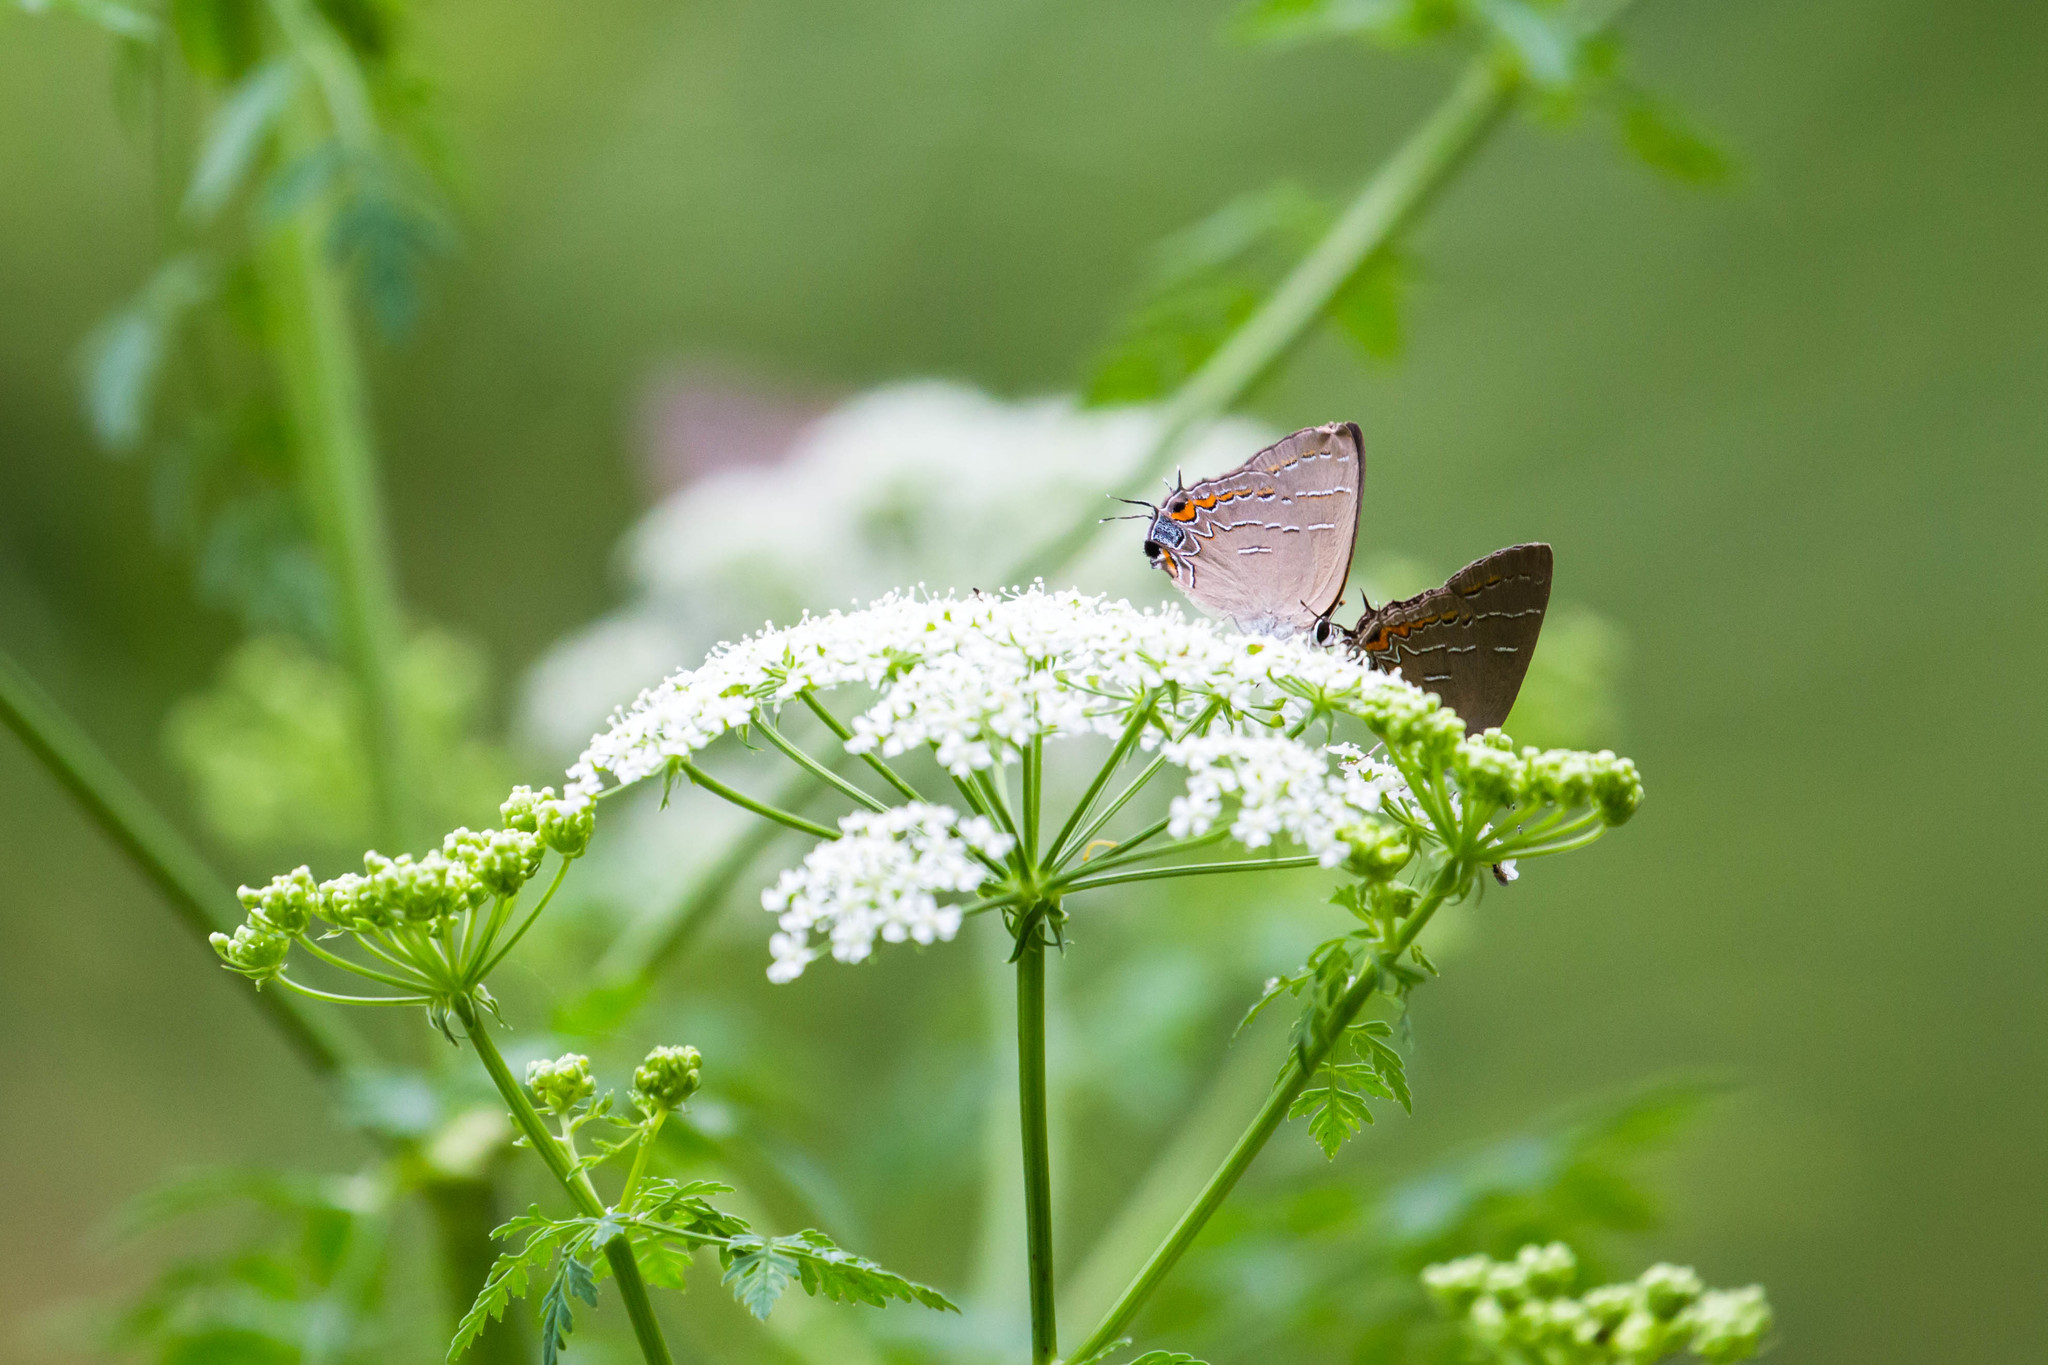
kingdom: Animalia
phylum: Arthropoda
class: Insecta
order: Lepidoptera
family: Lycaenidae
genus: Phaeostrymon
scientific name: Phaeostrymon alcestis
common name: Soapberry hairstreak
